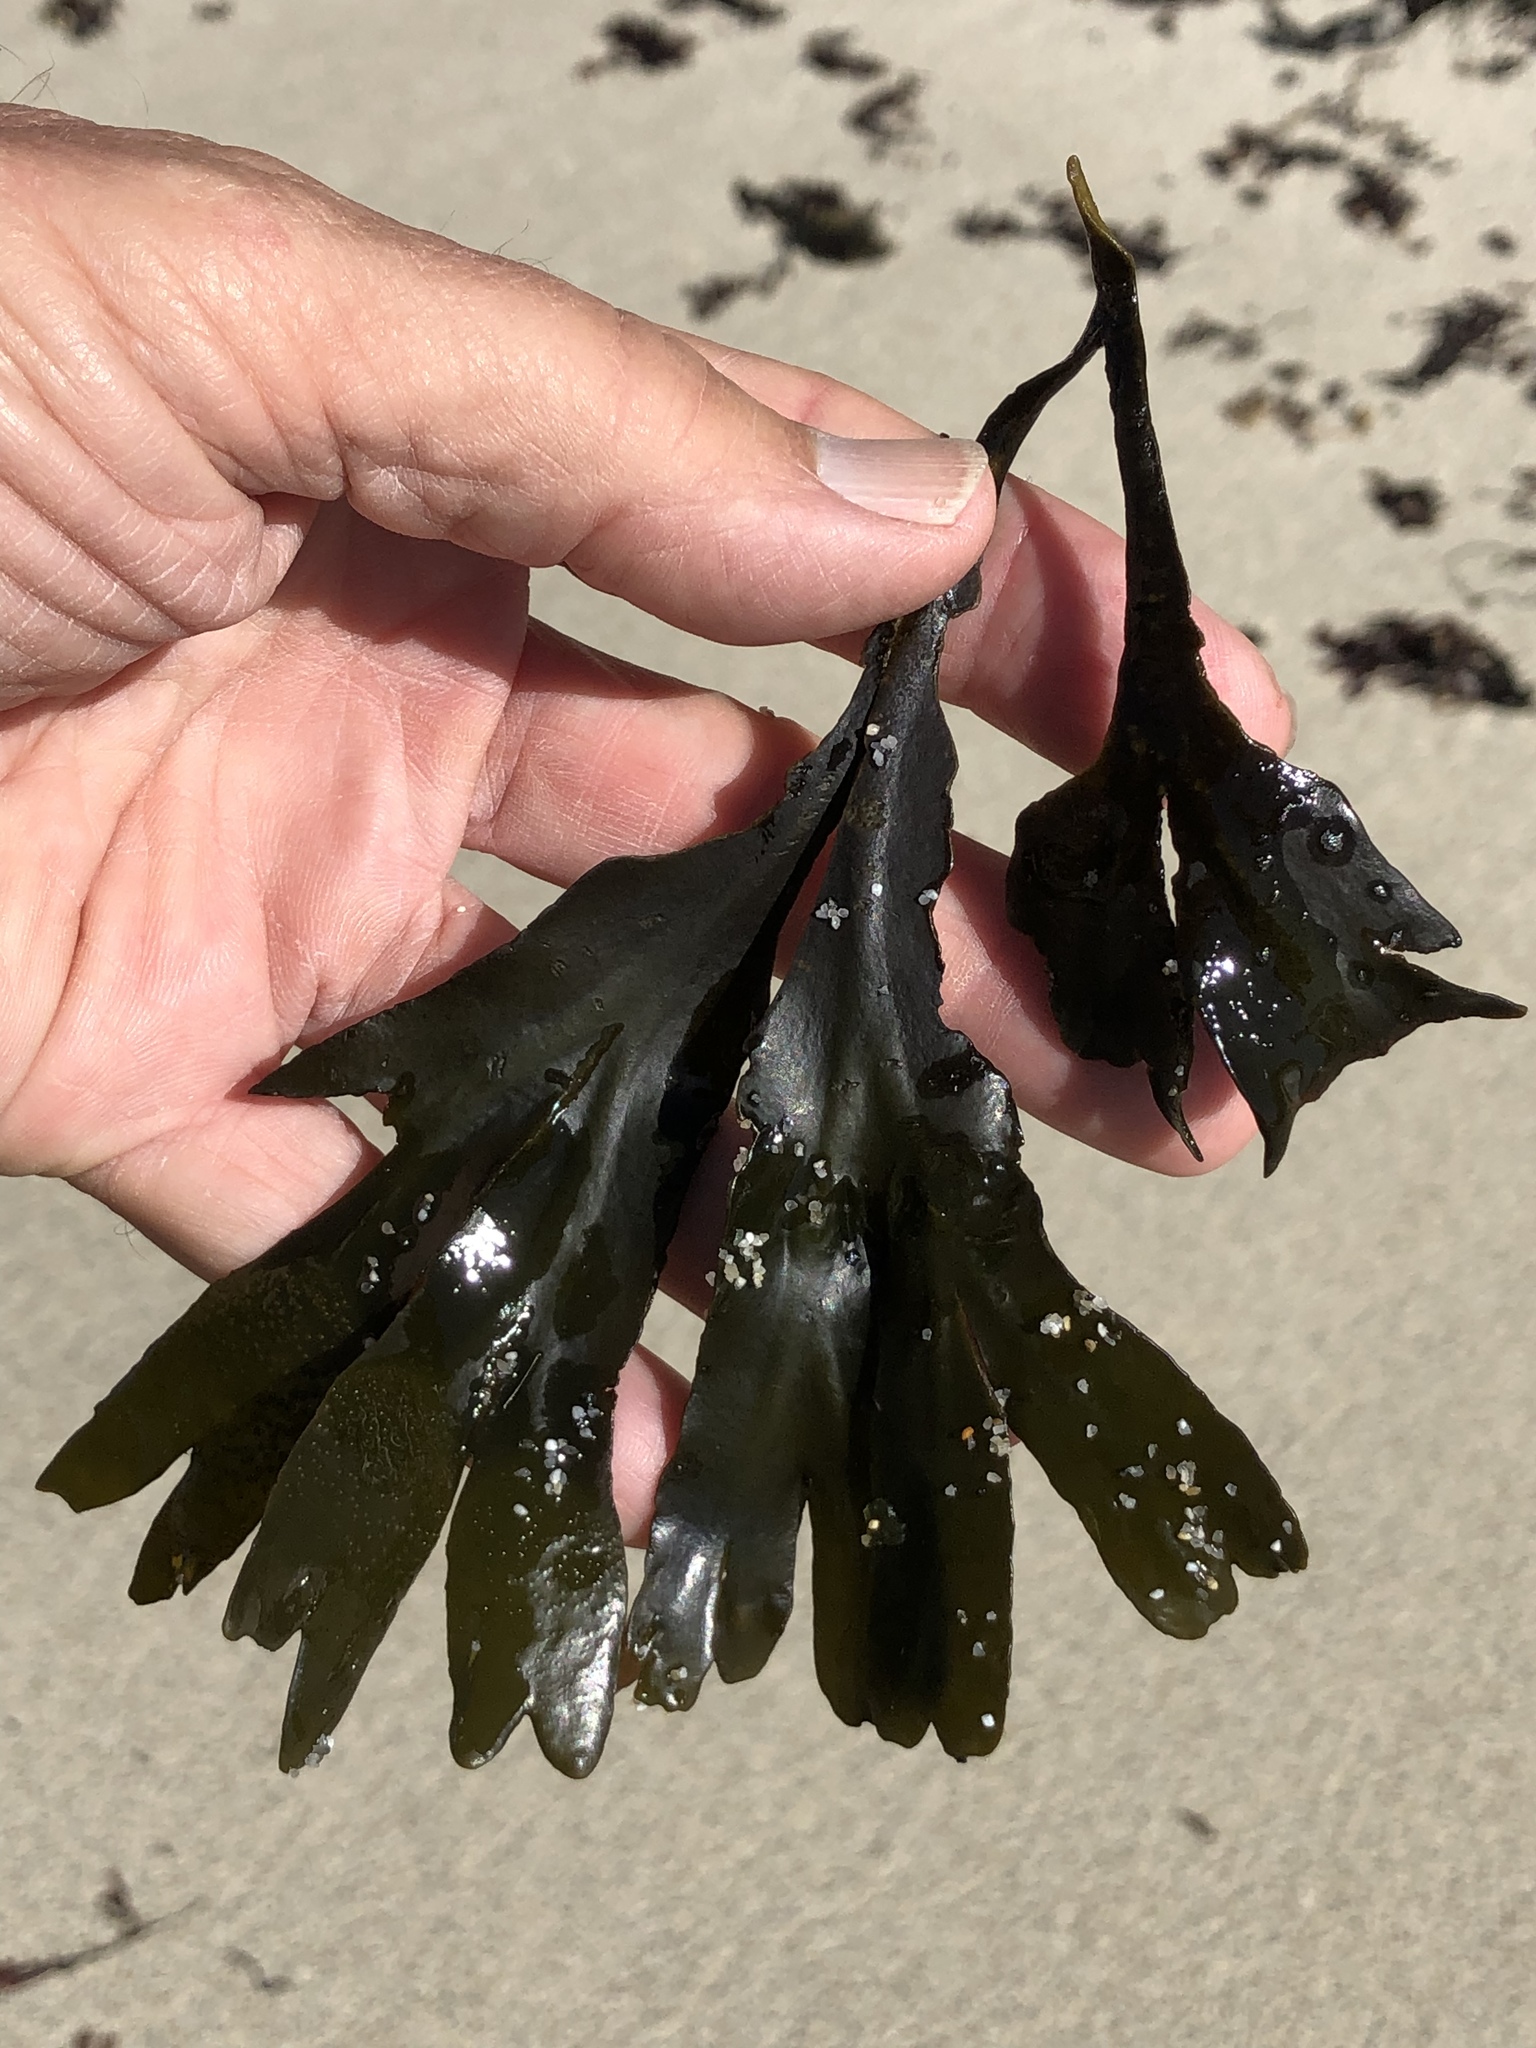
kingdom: Chromista
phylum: Ochrophyta
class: Phaeophyceae
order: Fucales
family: Fucaceae
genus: Fucus
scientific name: Fucus distichus
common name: Rockweed
